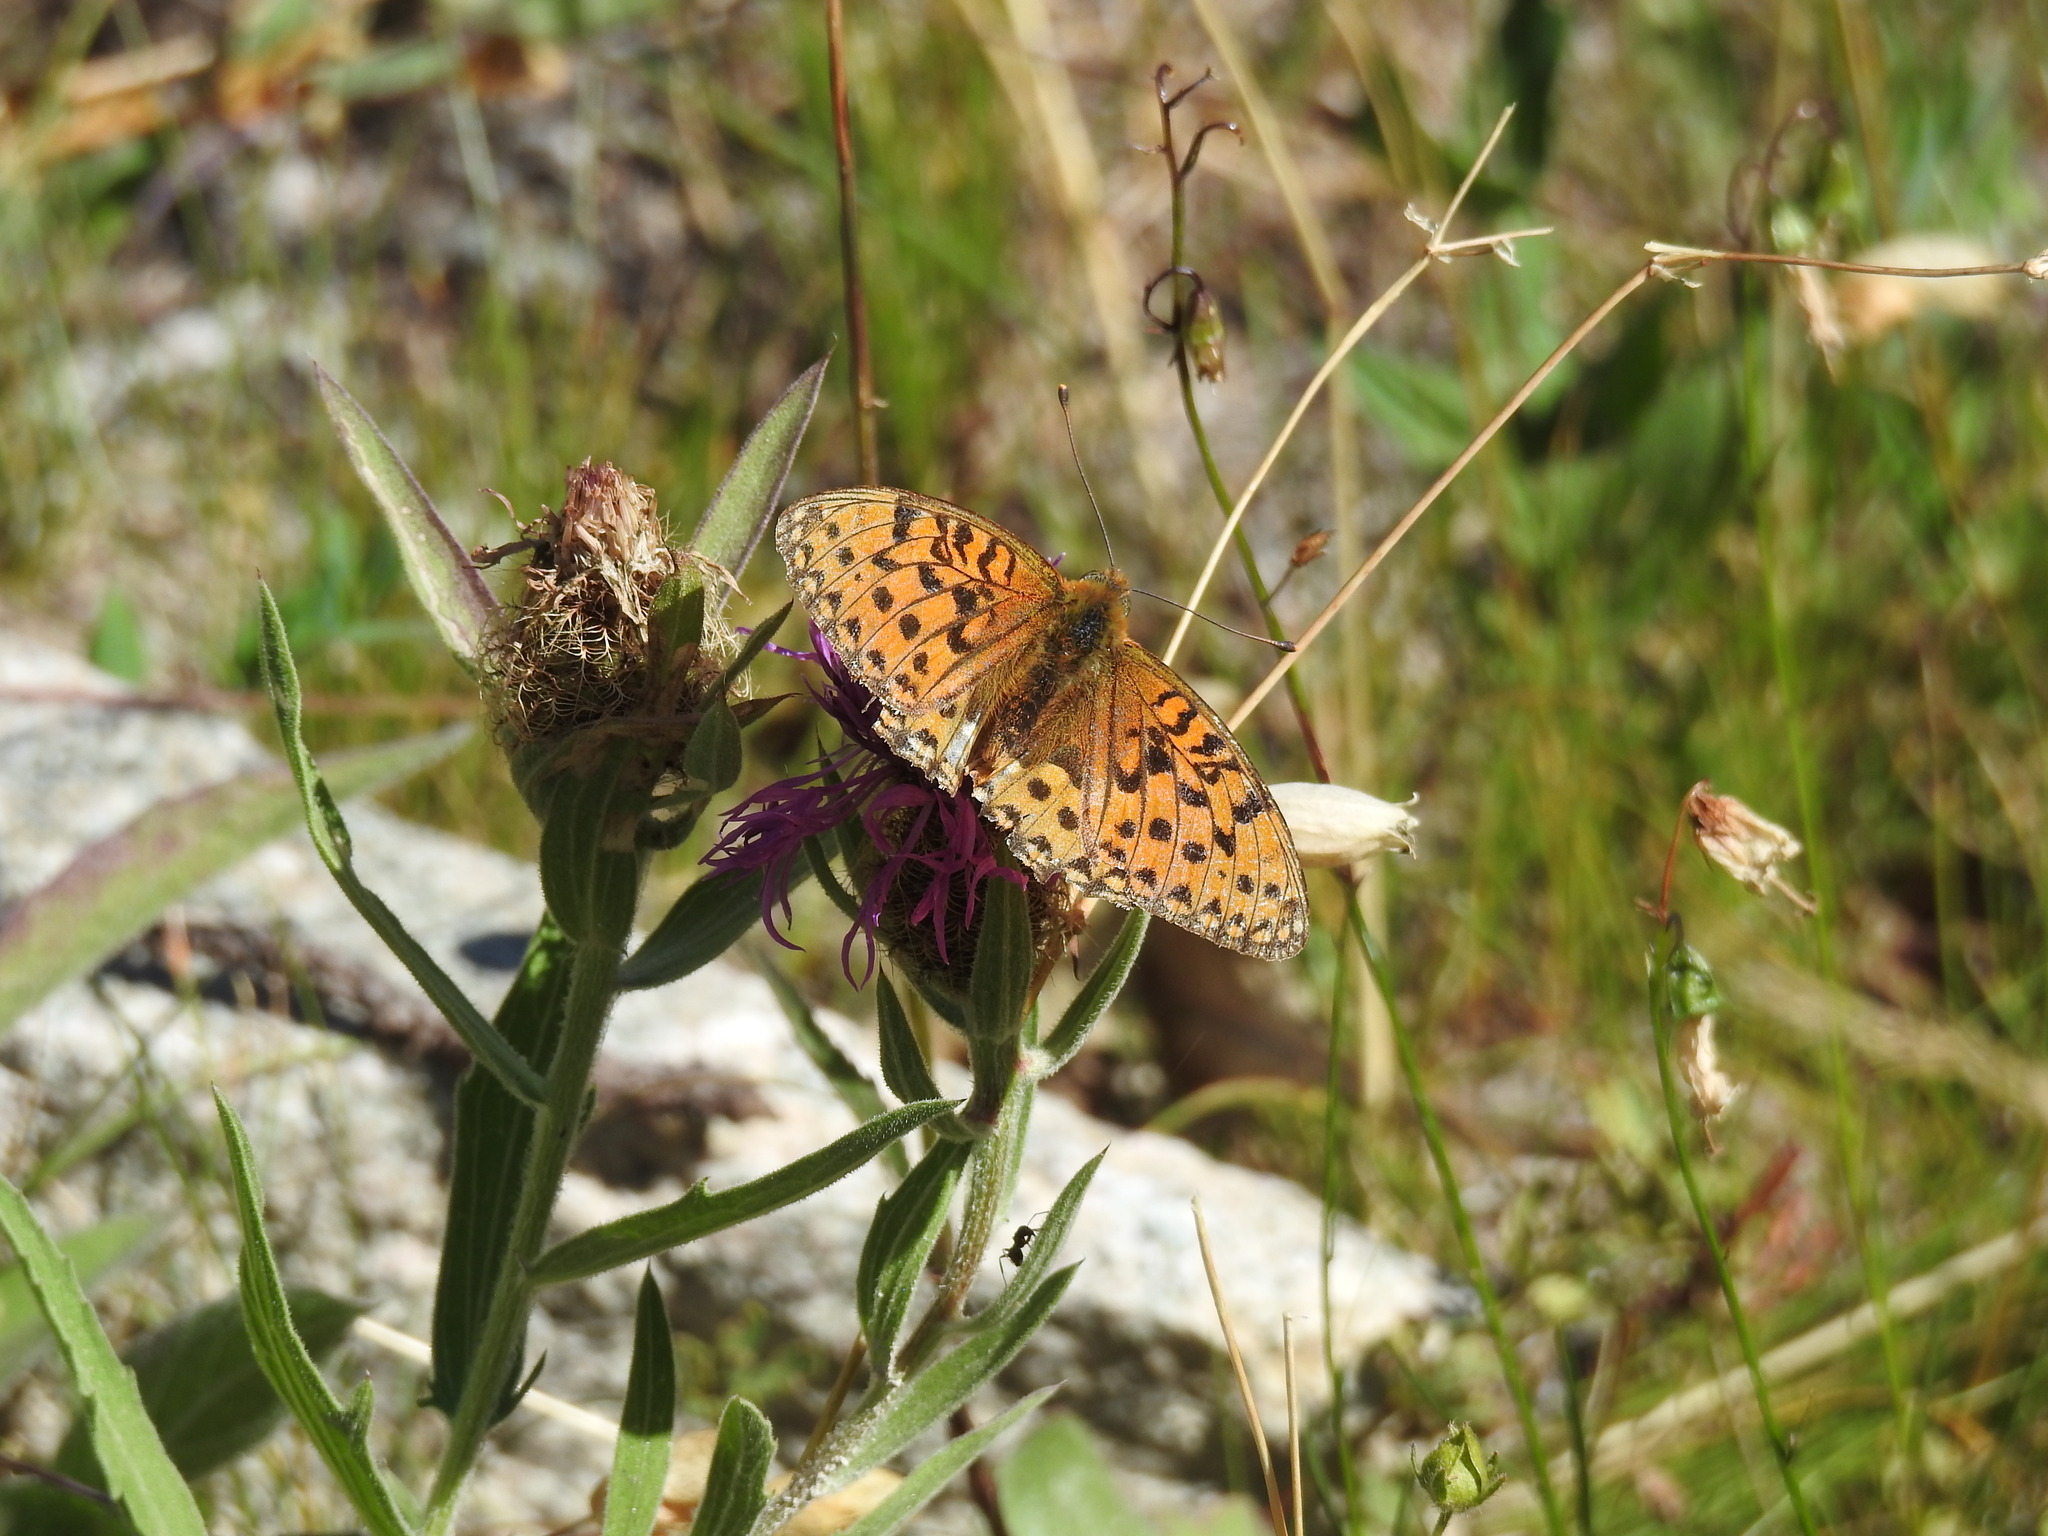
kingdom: Animalia
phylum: Arthropoda
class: Insecta
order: Lepidoptera
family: Nymphalidae
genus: Speyeria
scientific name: Speyeria aglaja
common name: Dark green fritillary
